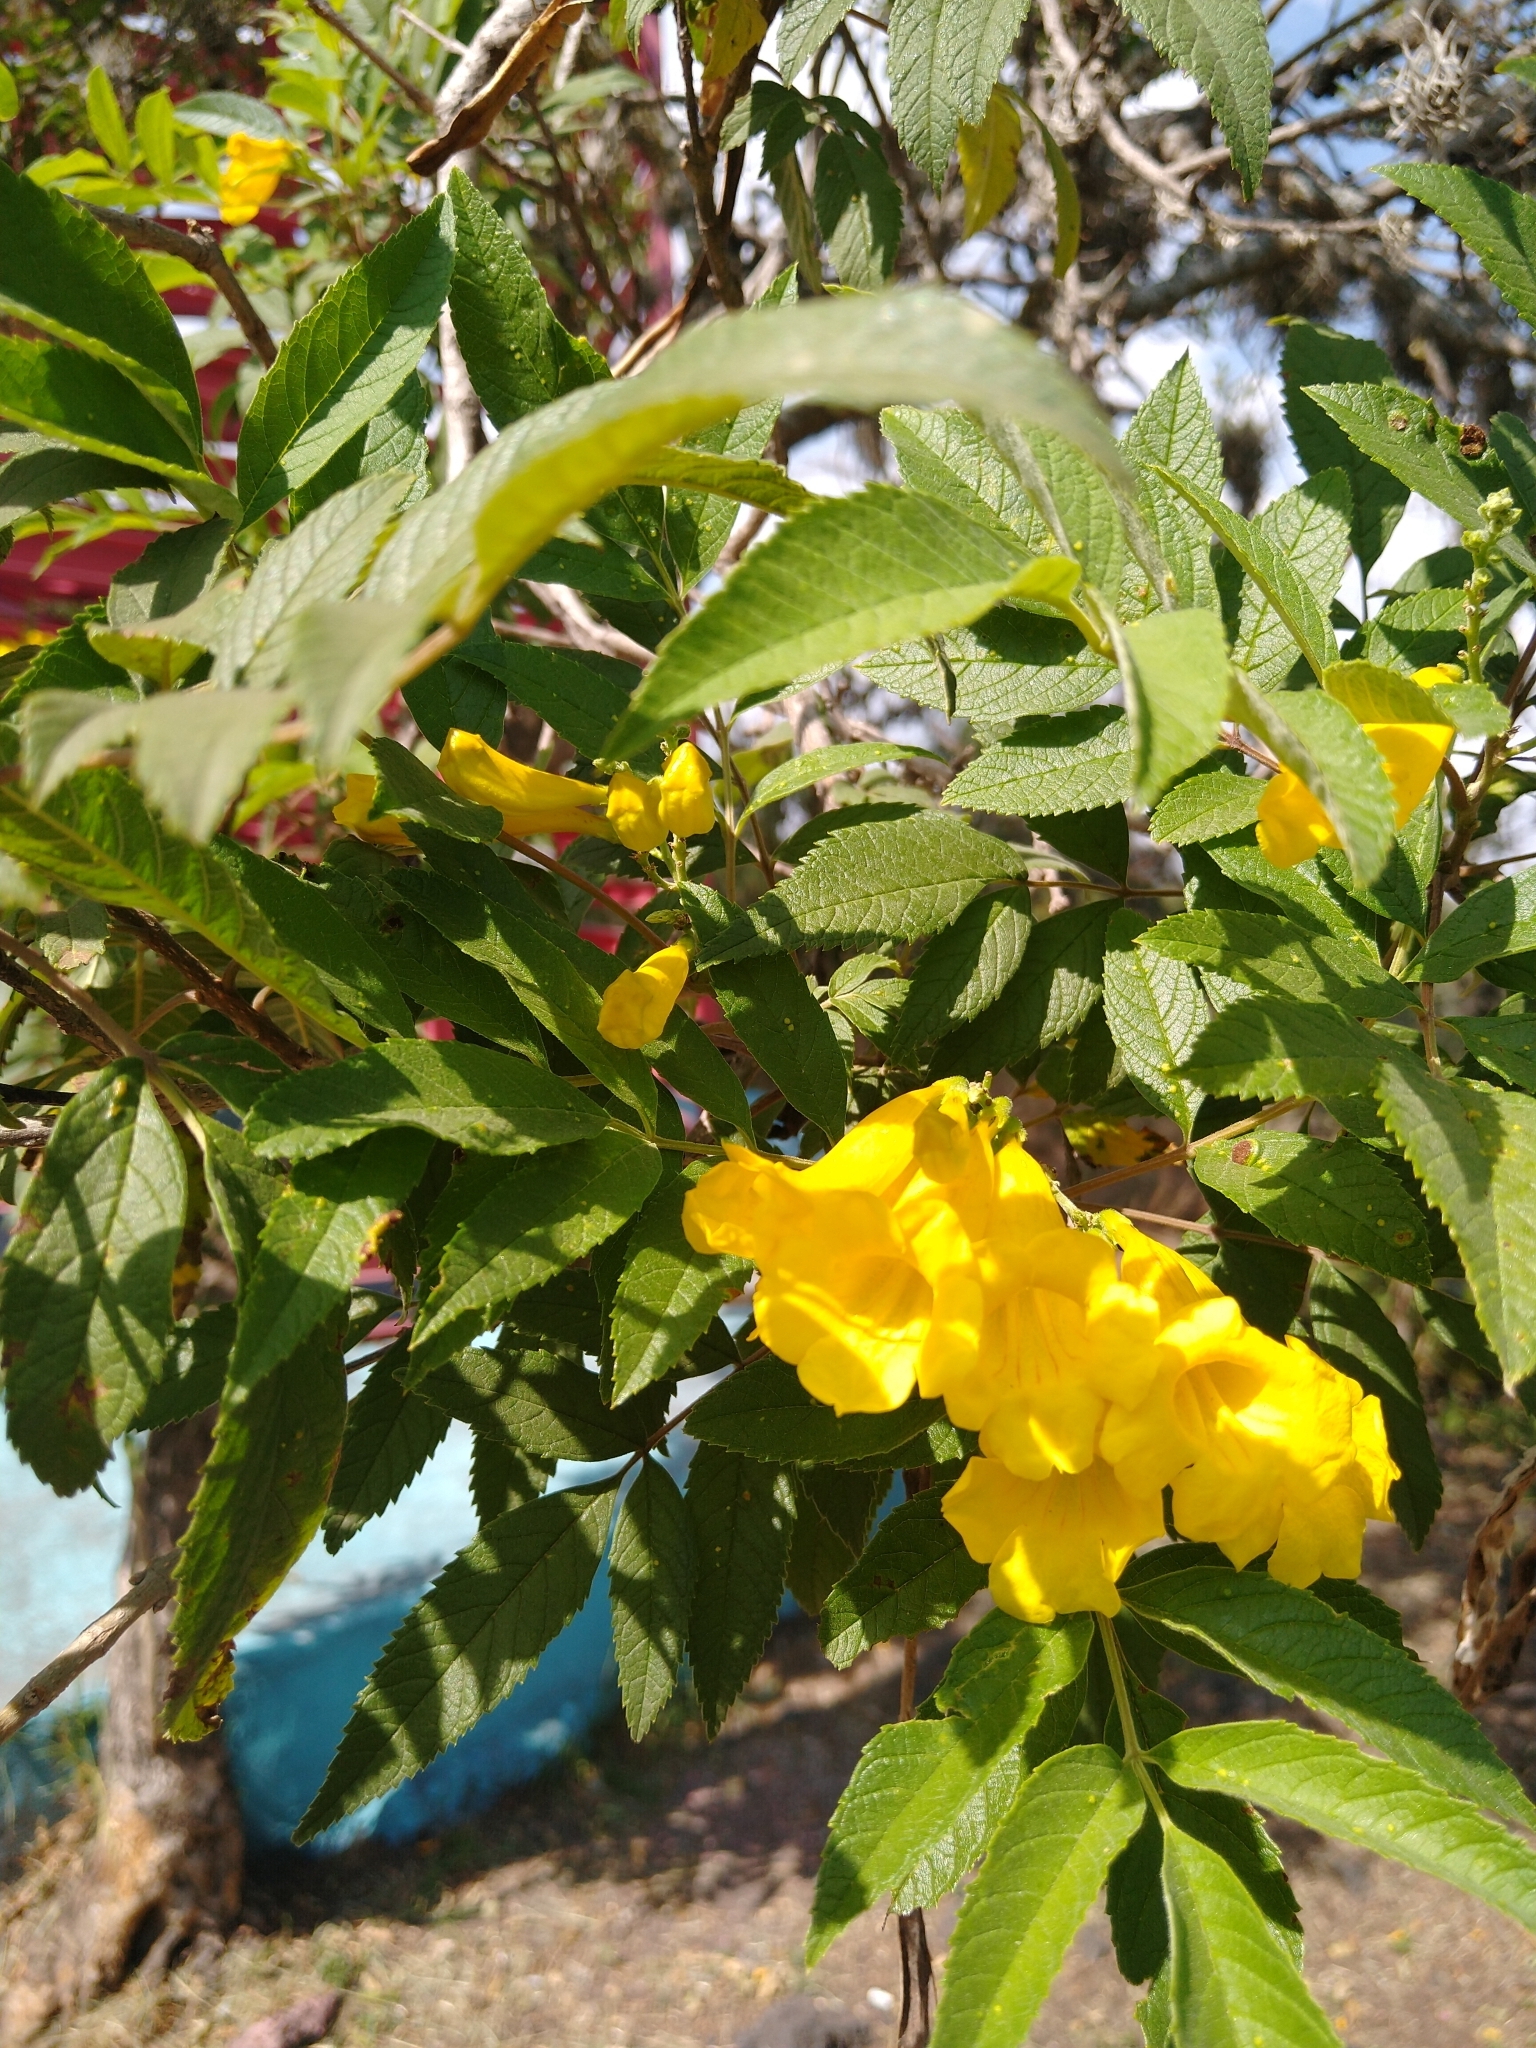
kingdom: Plantae
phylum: Tracheophyta
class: Magnoliopsida
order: Lamiales
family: Bignoniaceae
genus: Tecoma
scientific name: Tecoma stans
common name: Yellow trumpetbush
